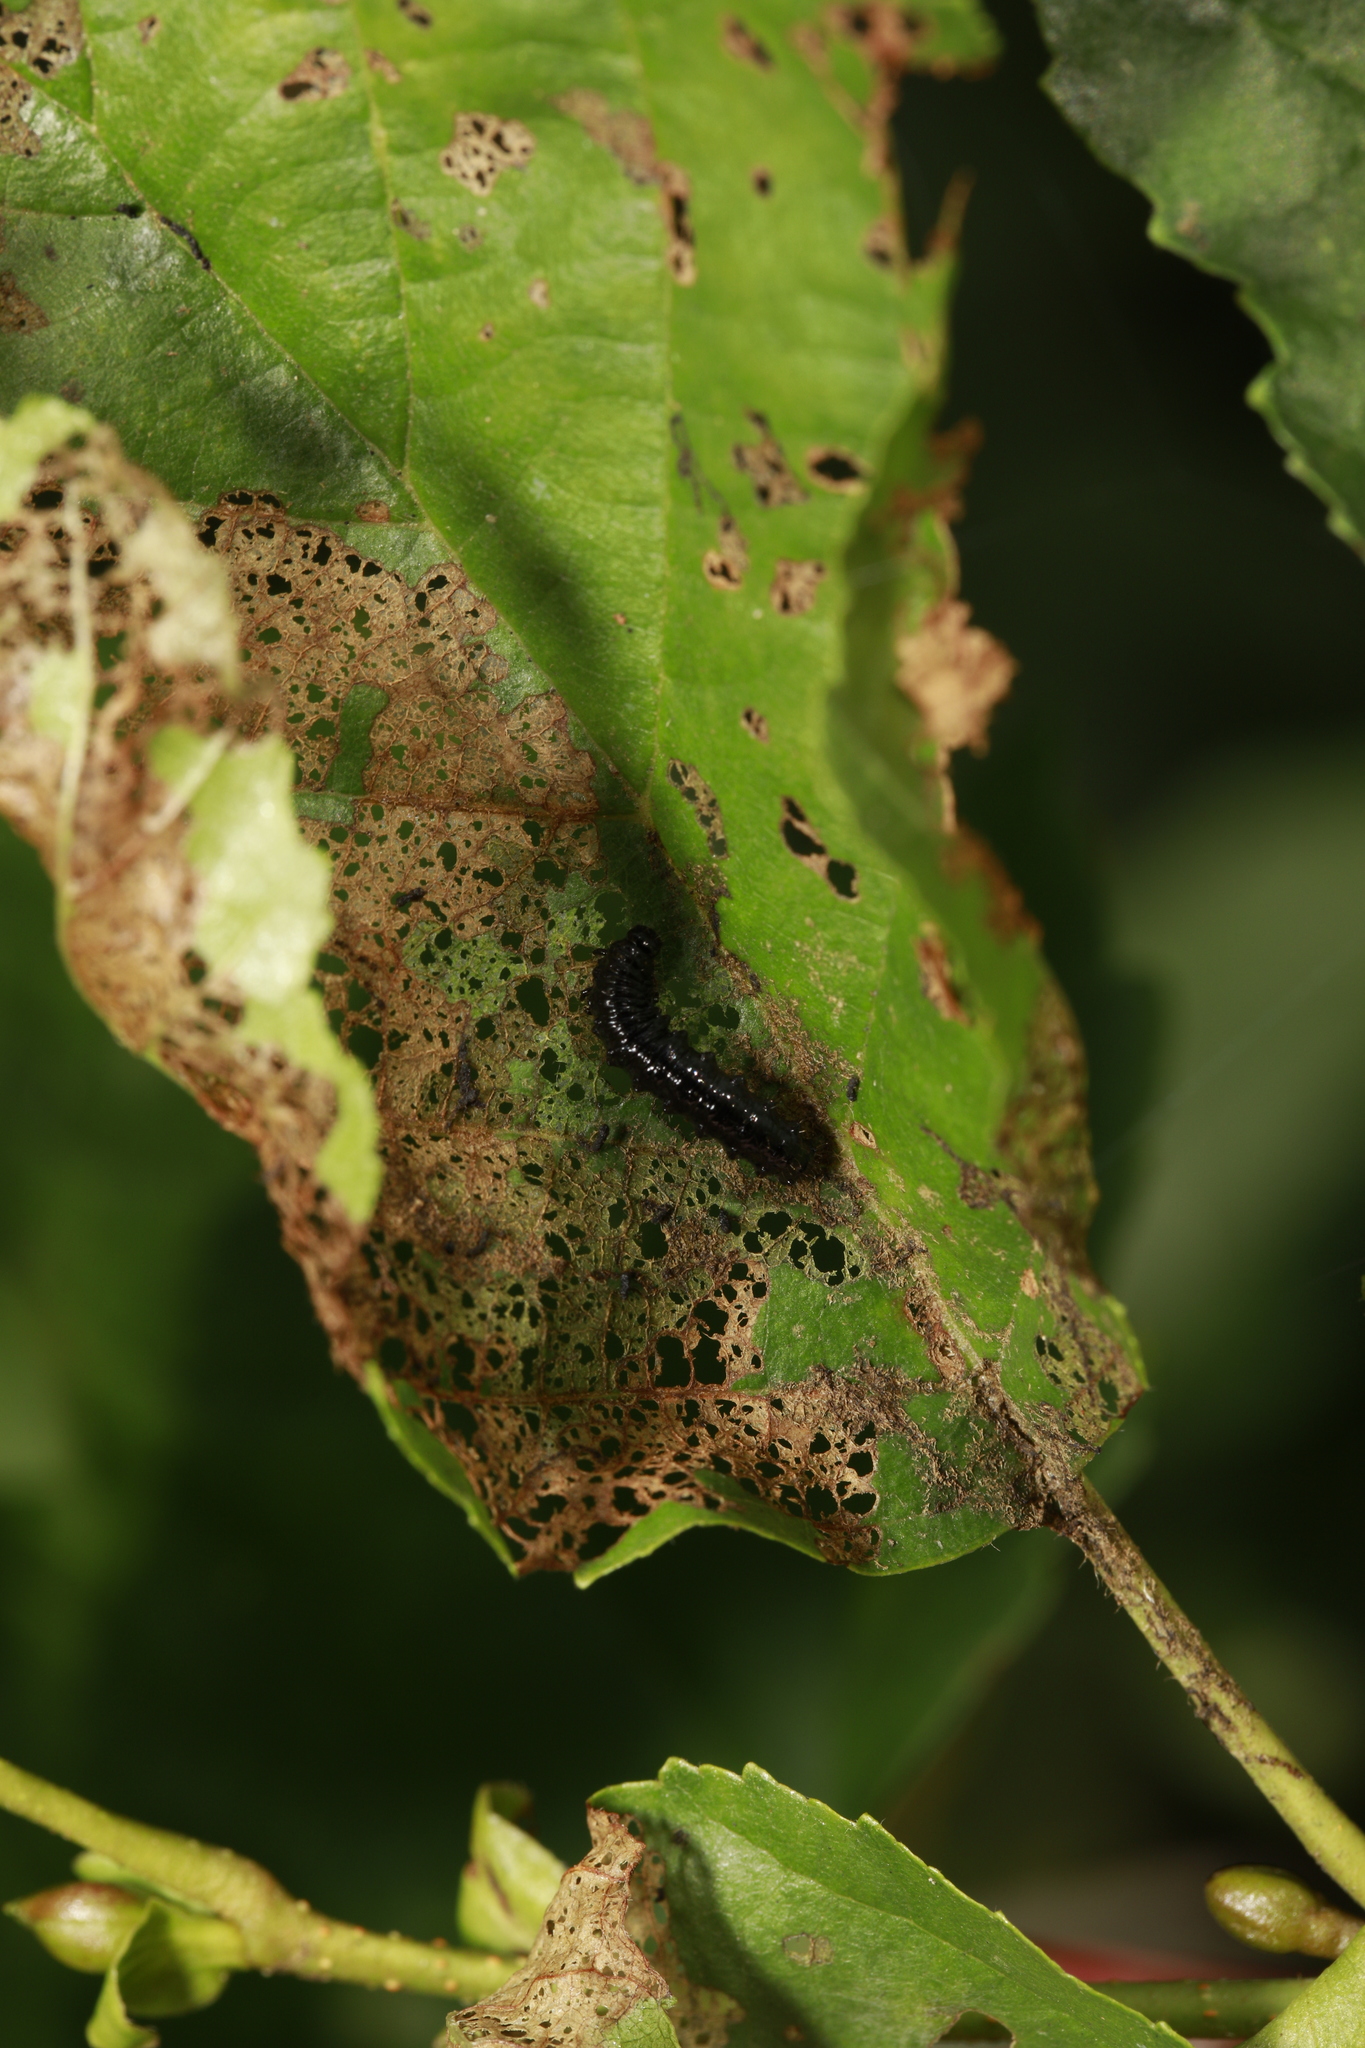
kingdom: Animalia
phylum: Arthropoda
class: Insecta
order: Coleoptera
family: Chrysomelidae
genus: Agelastica
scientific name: Agelastica alni
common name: Alder leaf beetle
